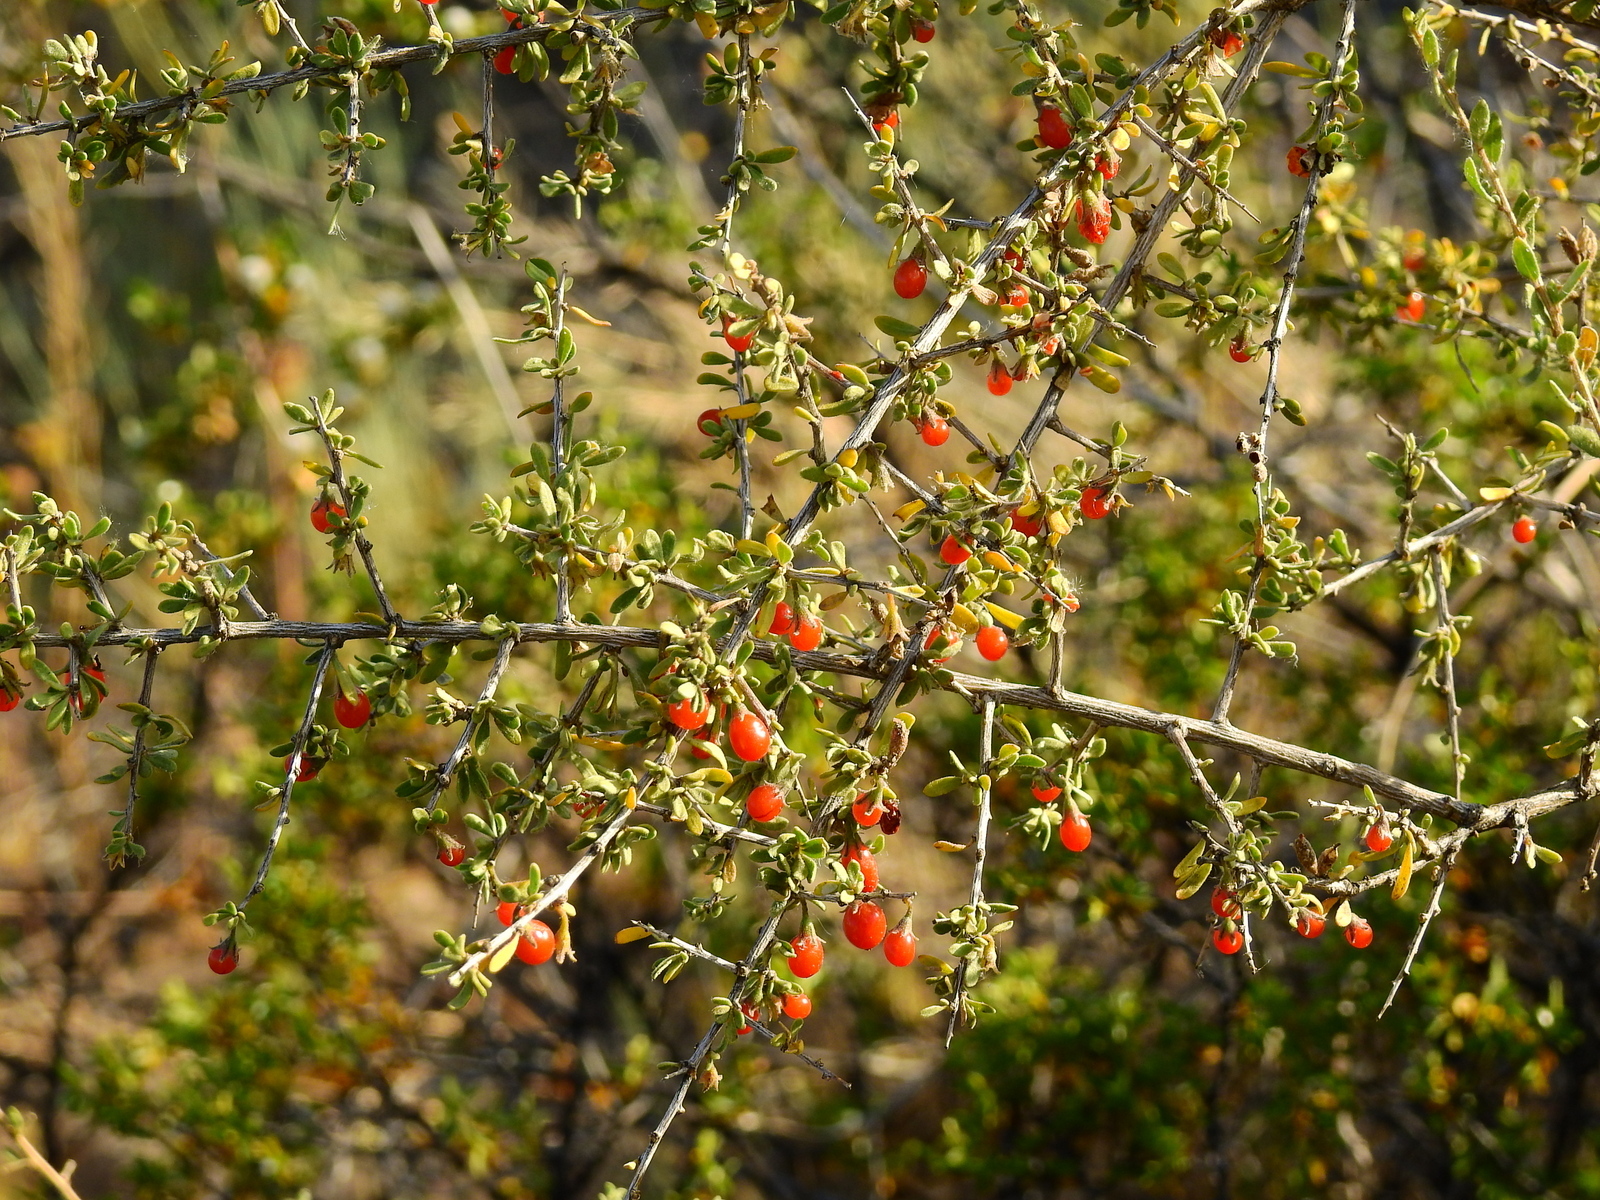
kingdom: Plantae
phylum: Tracheophyta
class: Magnoliopsida
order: Solanales
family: Solanaceae
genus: Lycium
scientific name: Lycium chilense
